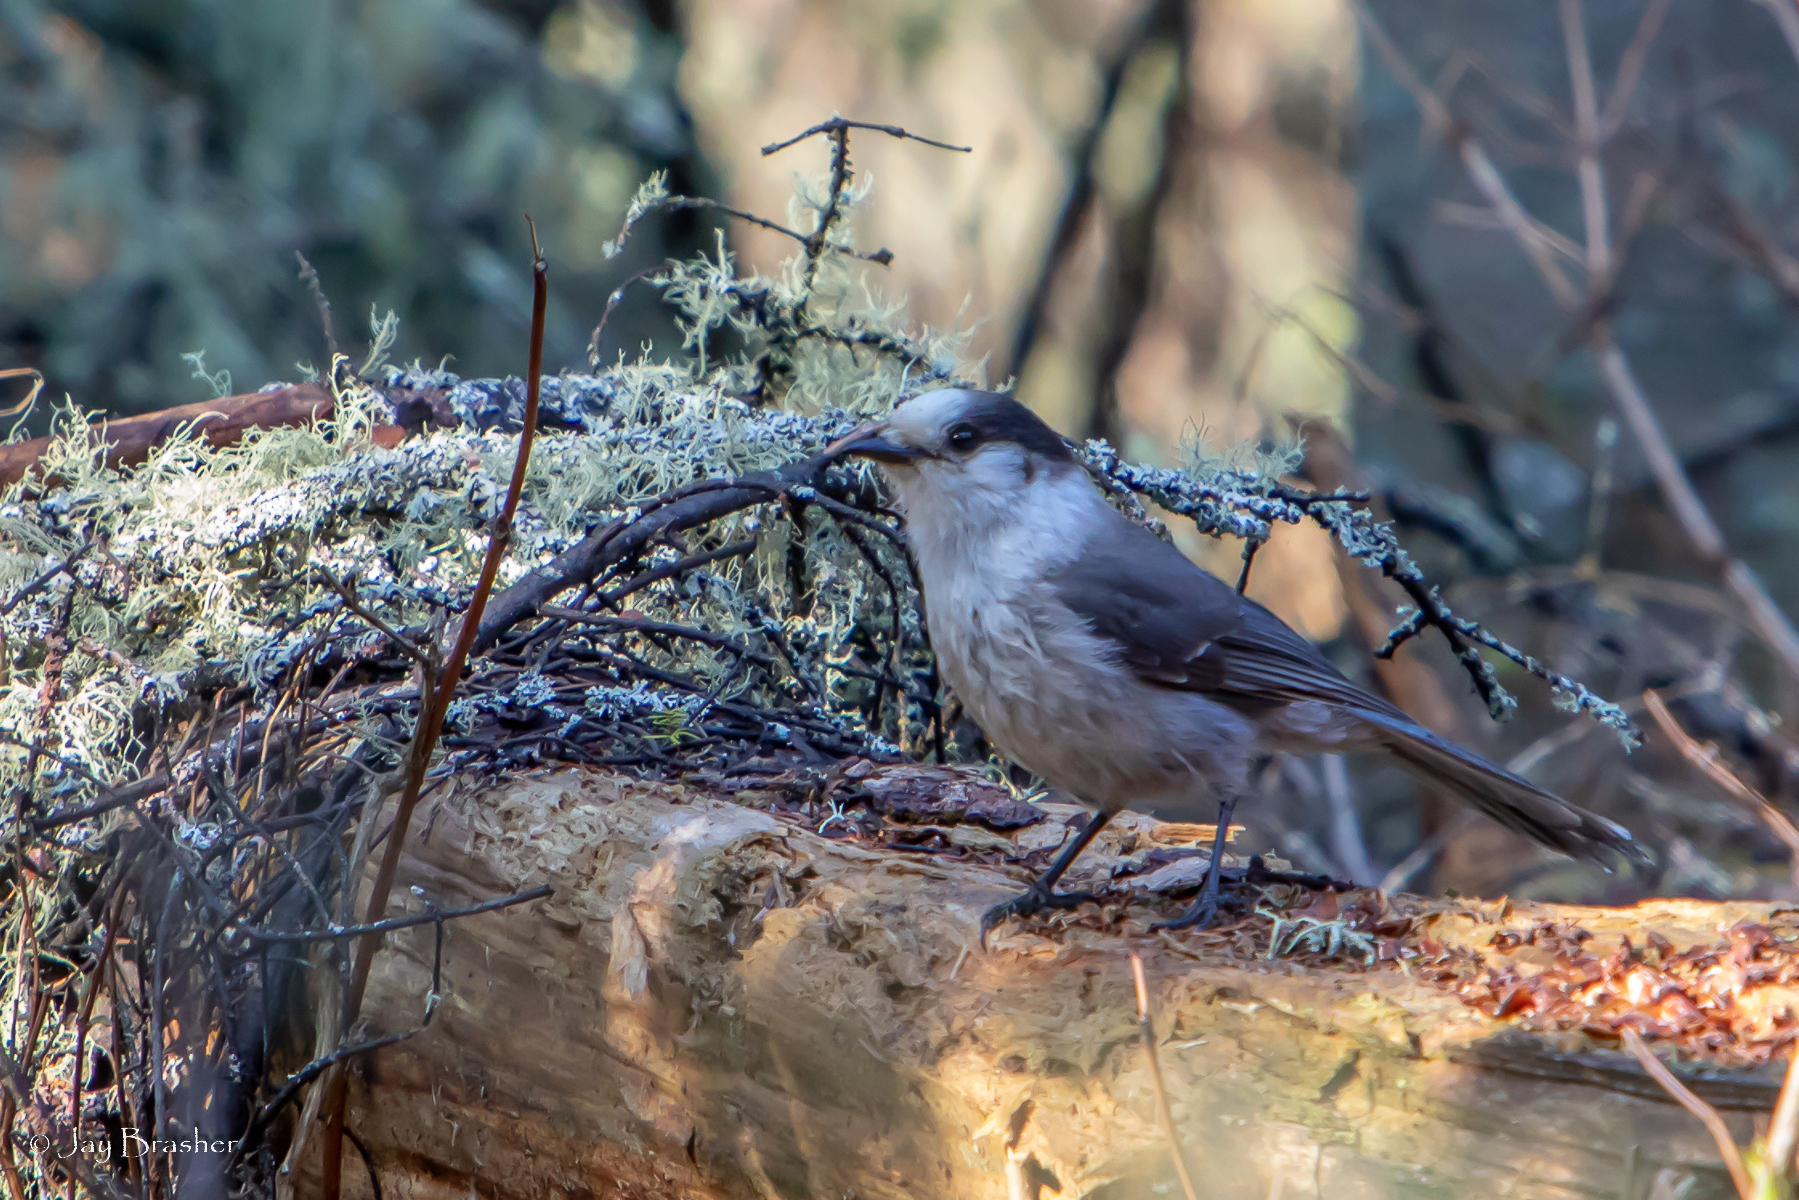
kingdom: Animalia
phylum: Chordata
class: Aves
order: Passeriformes
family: Corvidae
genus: Perisoreus
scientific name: Perisoreus canadensis
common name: Gray jay
